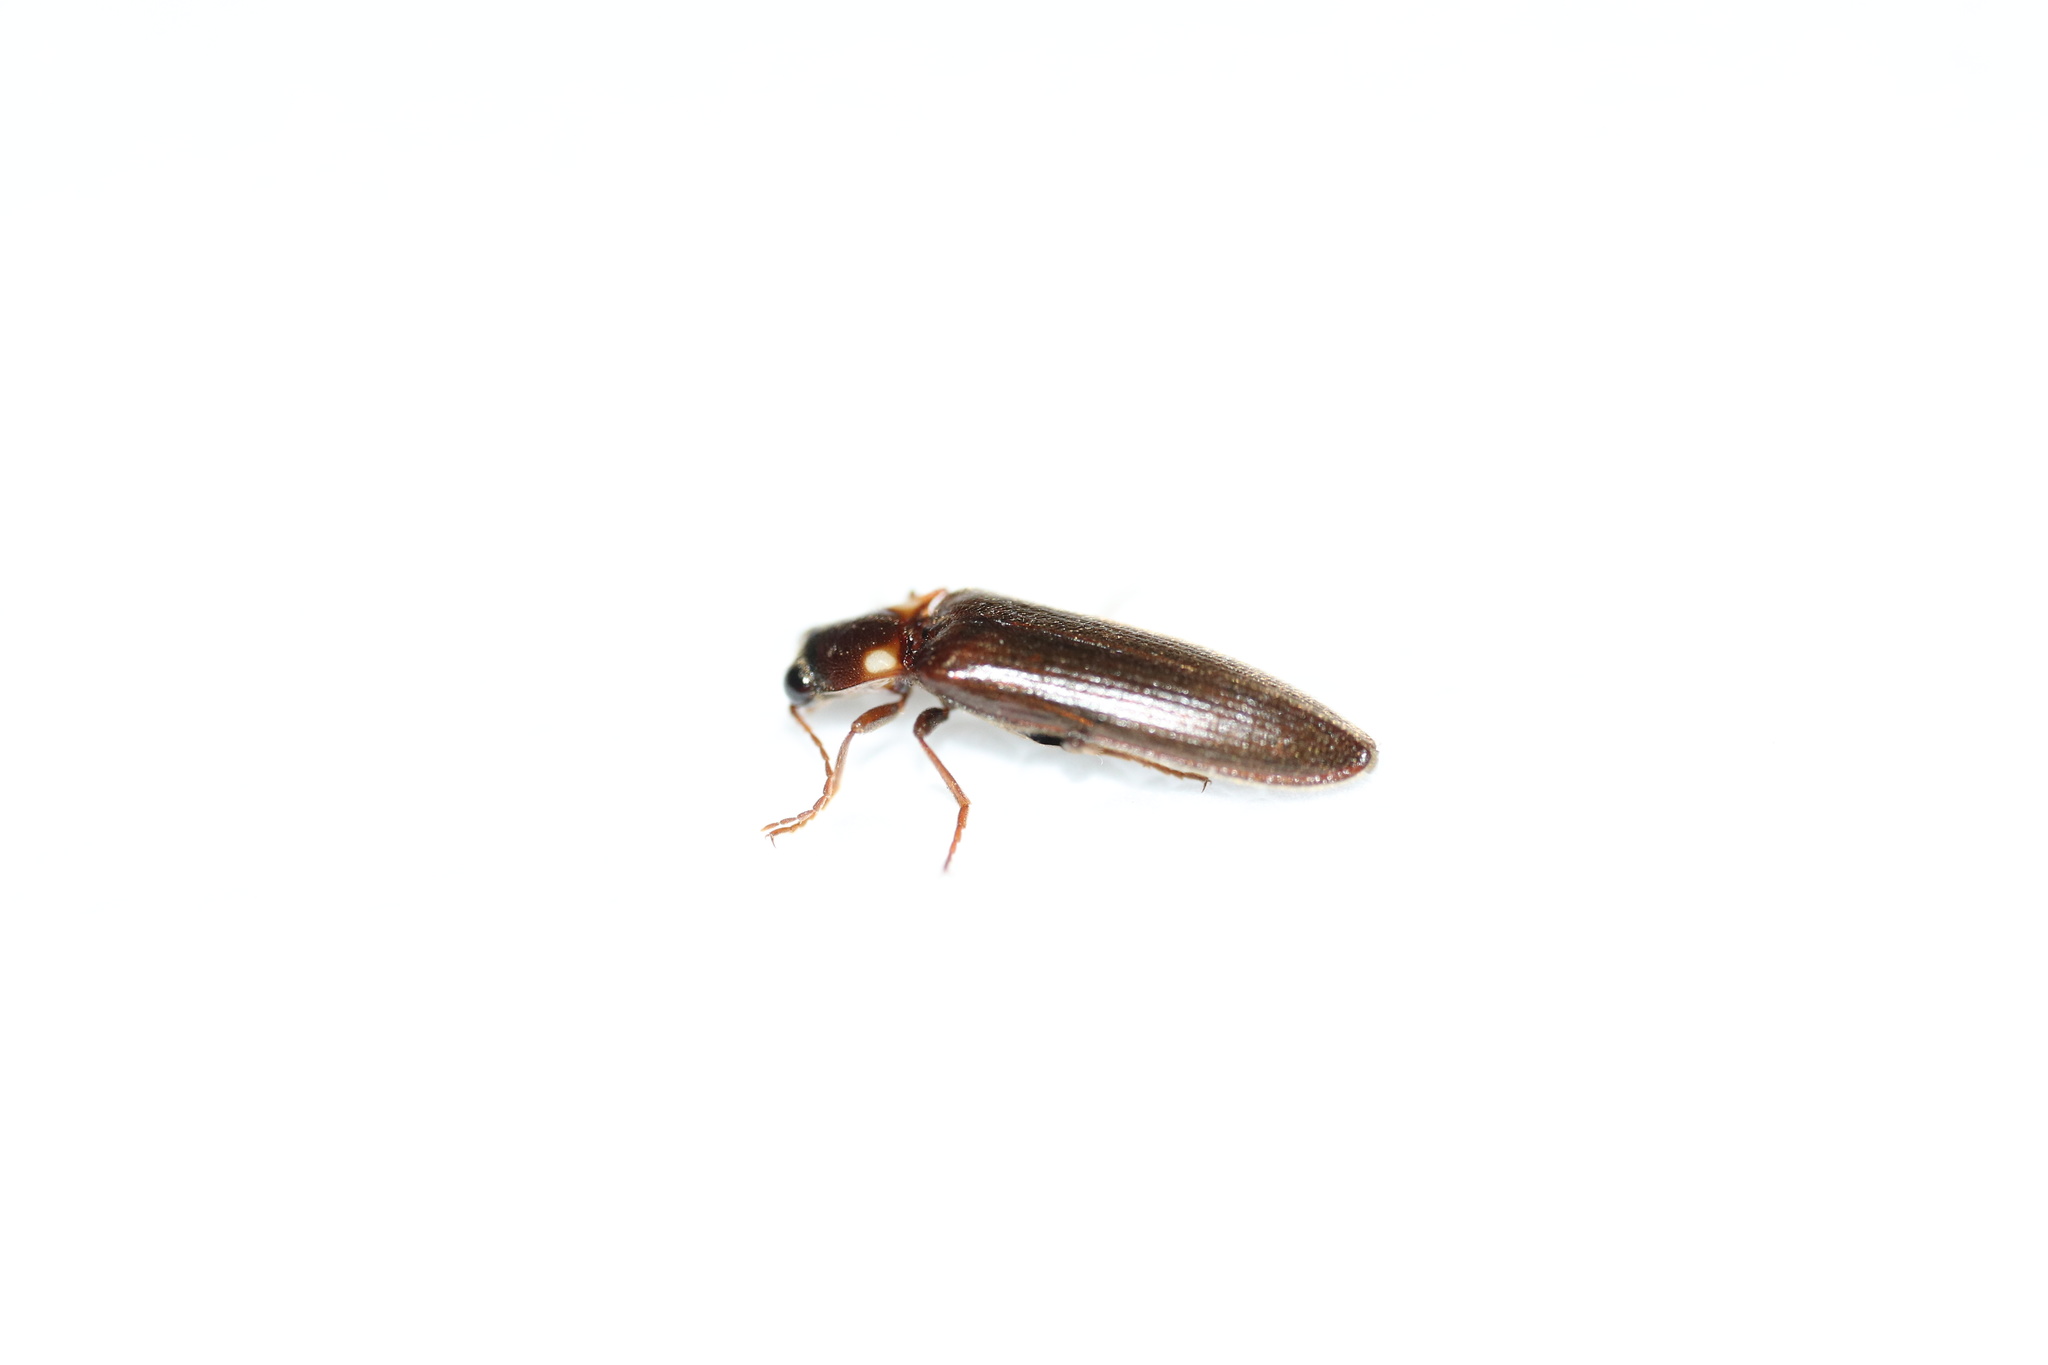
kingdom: Animalia
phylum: Arthropoda
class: Insecta
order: Coleoptera
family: Elateridae
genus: Phanophorus
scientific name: Phanophorus
